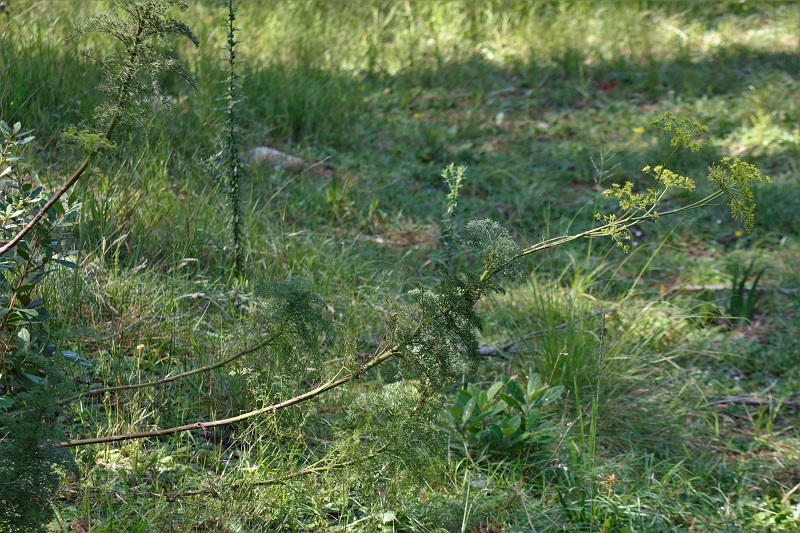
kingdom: Plantae
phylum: Tracheophyta
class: Magnoliopsida
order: Apiales
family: Apiaceae
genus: Notobubon
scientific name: Notobubon ferulaceum
